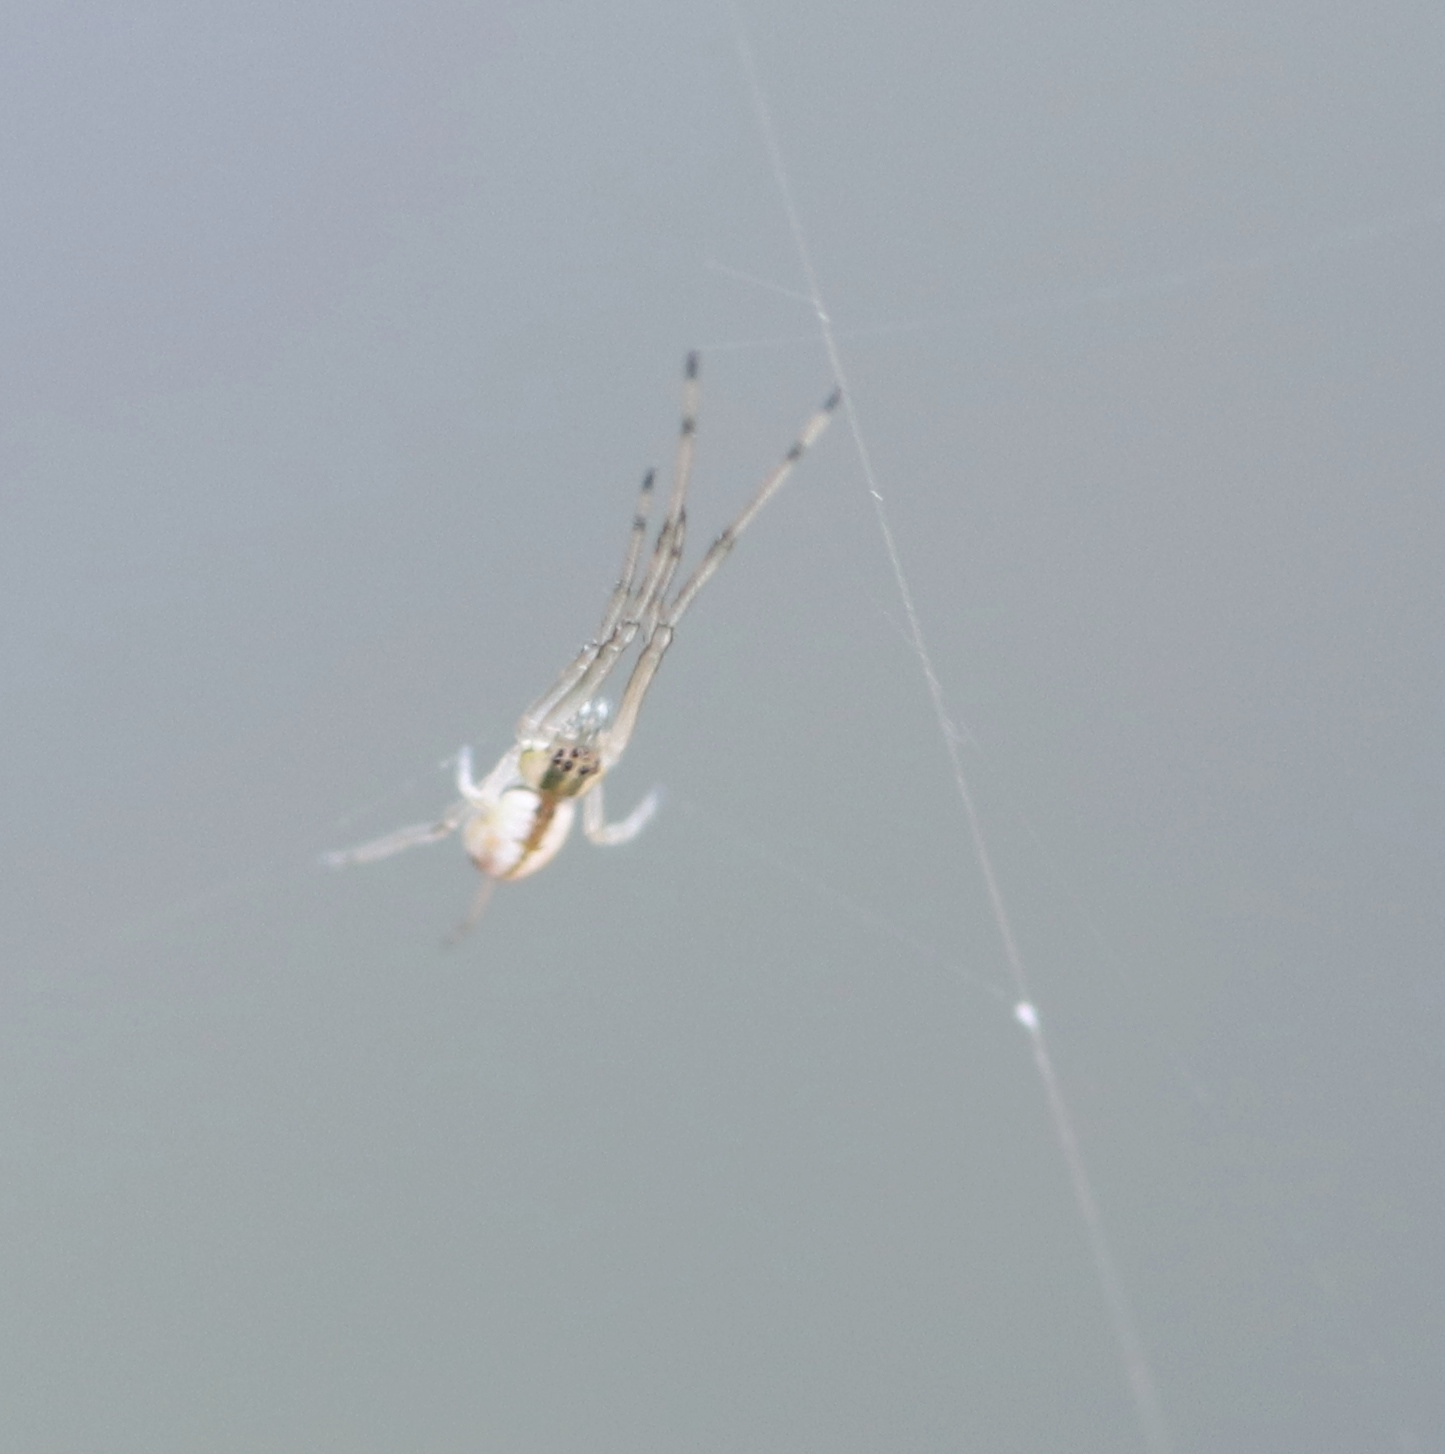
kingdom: Animalia
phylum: Arthropoda
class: Arachnida
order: Araneae
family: Tetragnathidae
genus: Tetragnatha
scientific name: Tetragnatha
